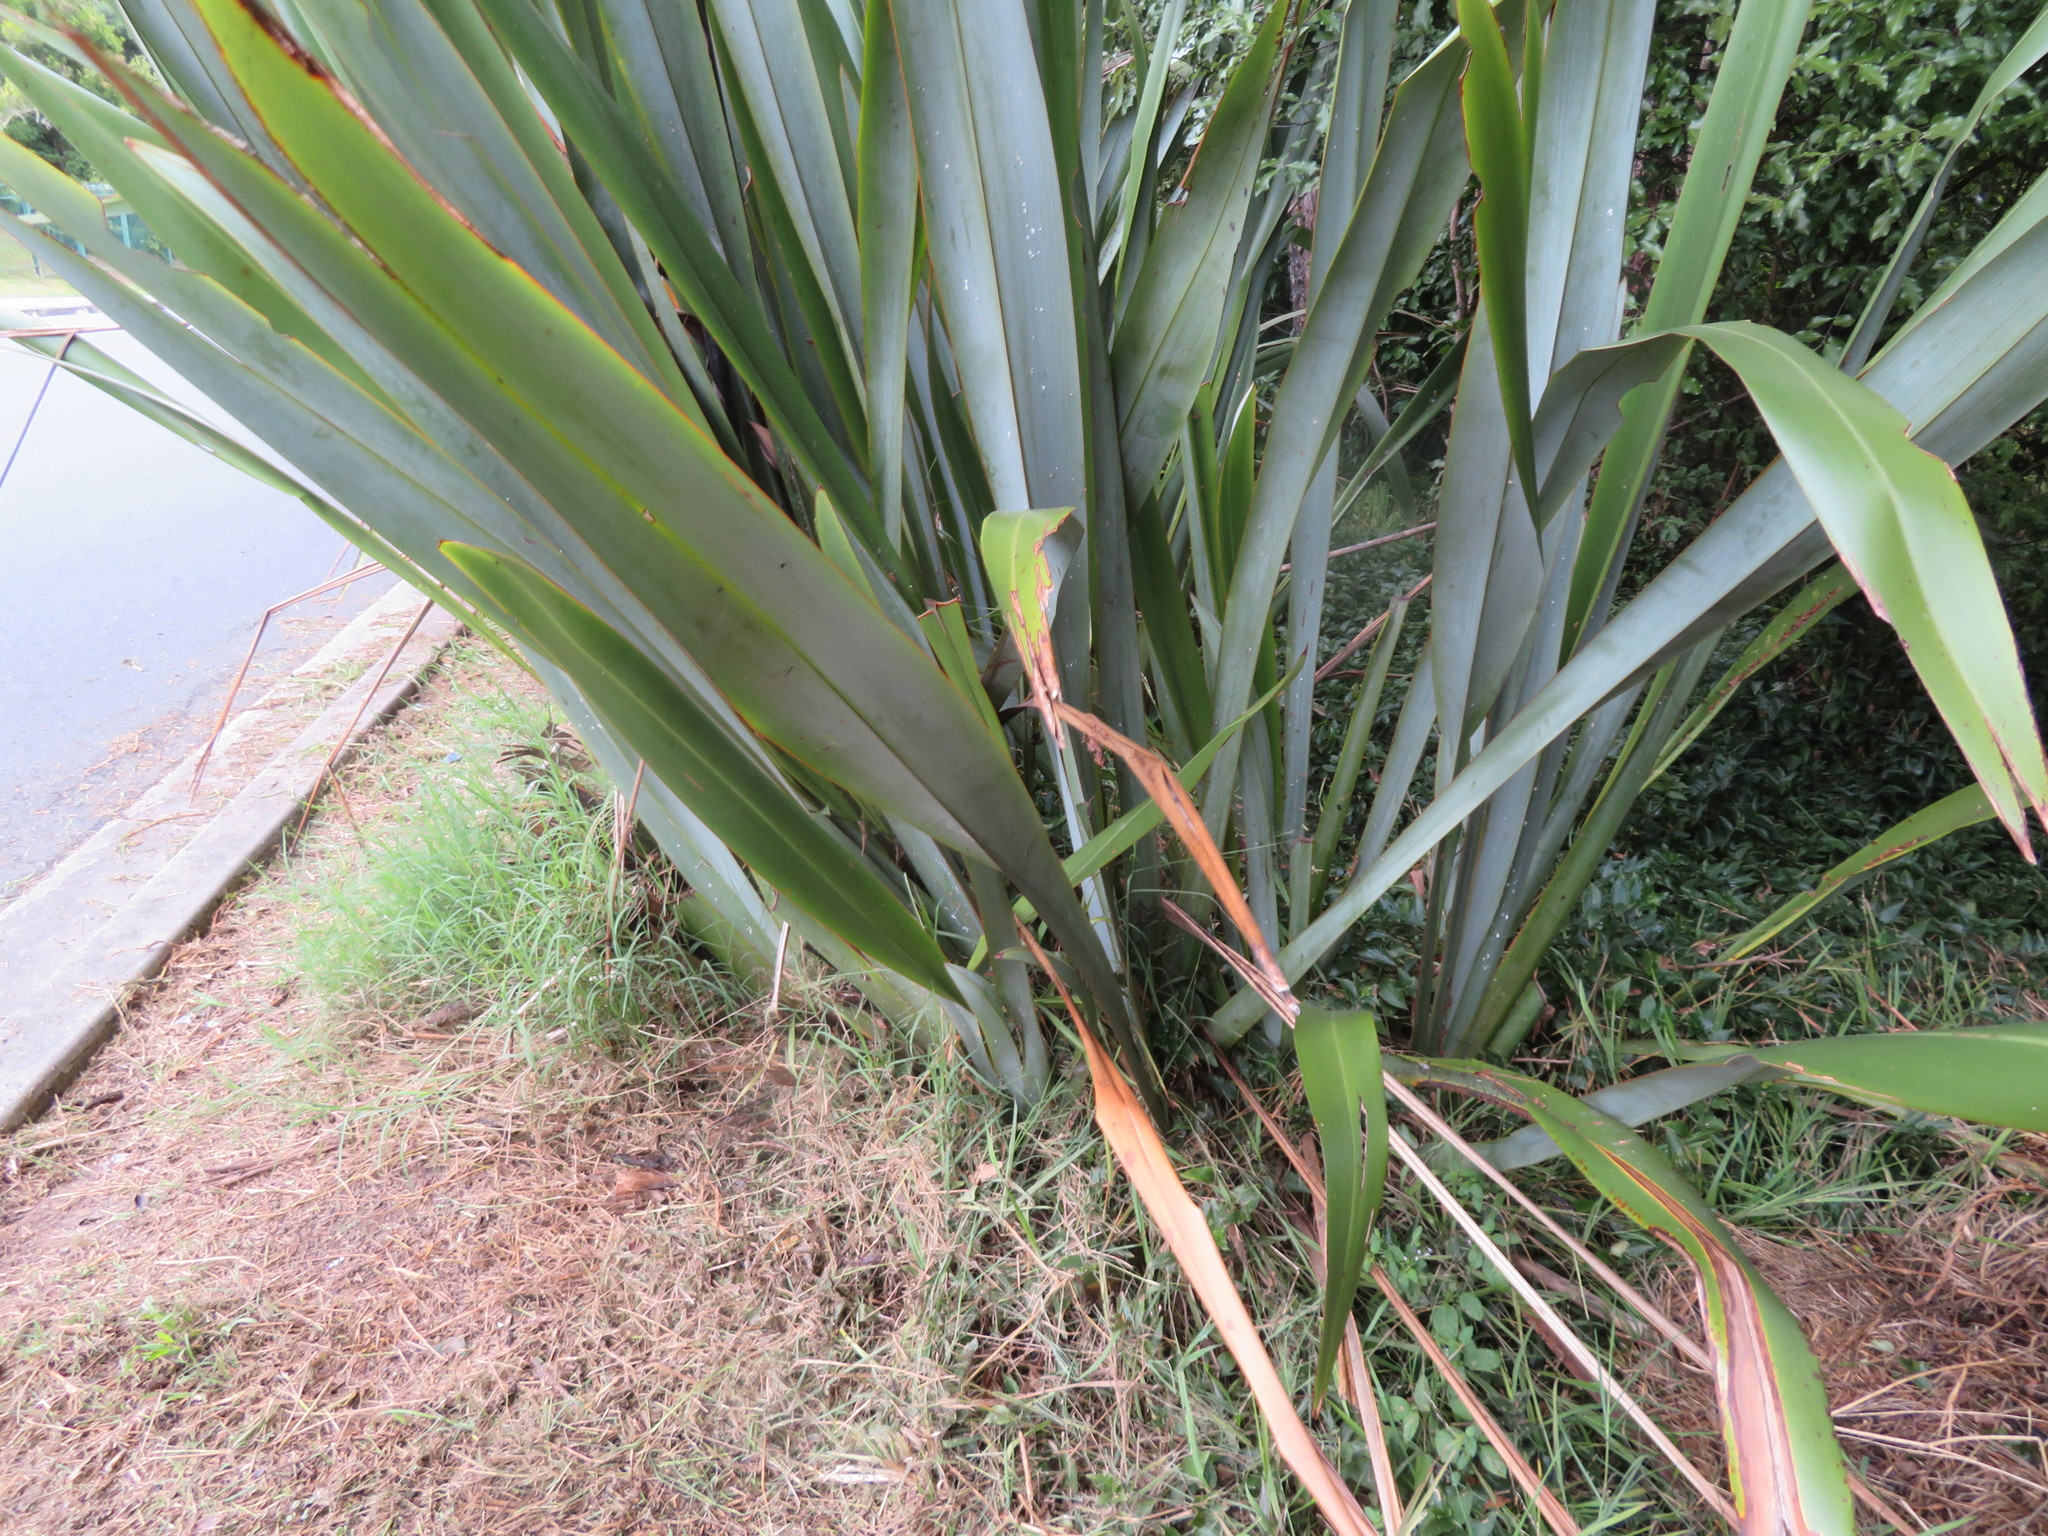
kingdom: Plantae
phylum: Tracheophyta
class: Liliopsida
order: Poales
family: Poaceae
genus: Cynodon
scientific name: Cynodon dactylon
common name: Bermuda grass
